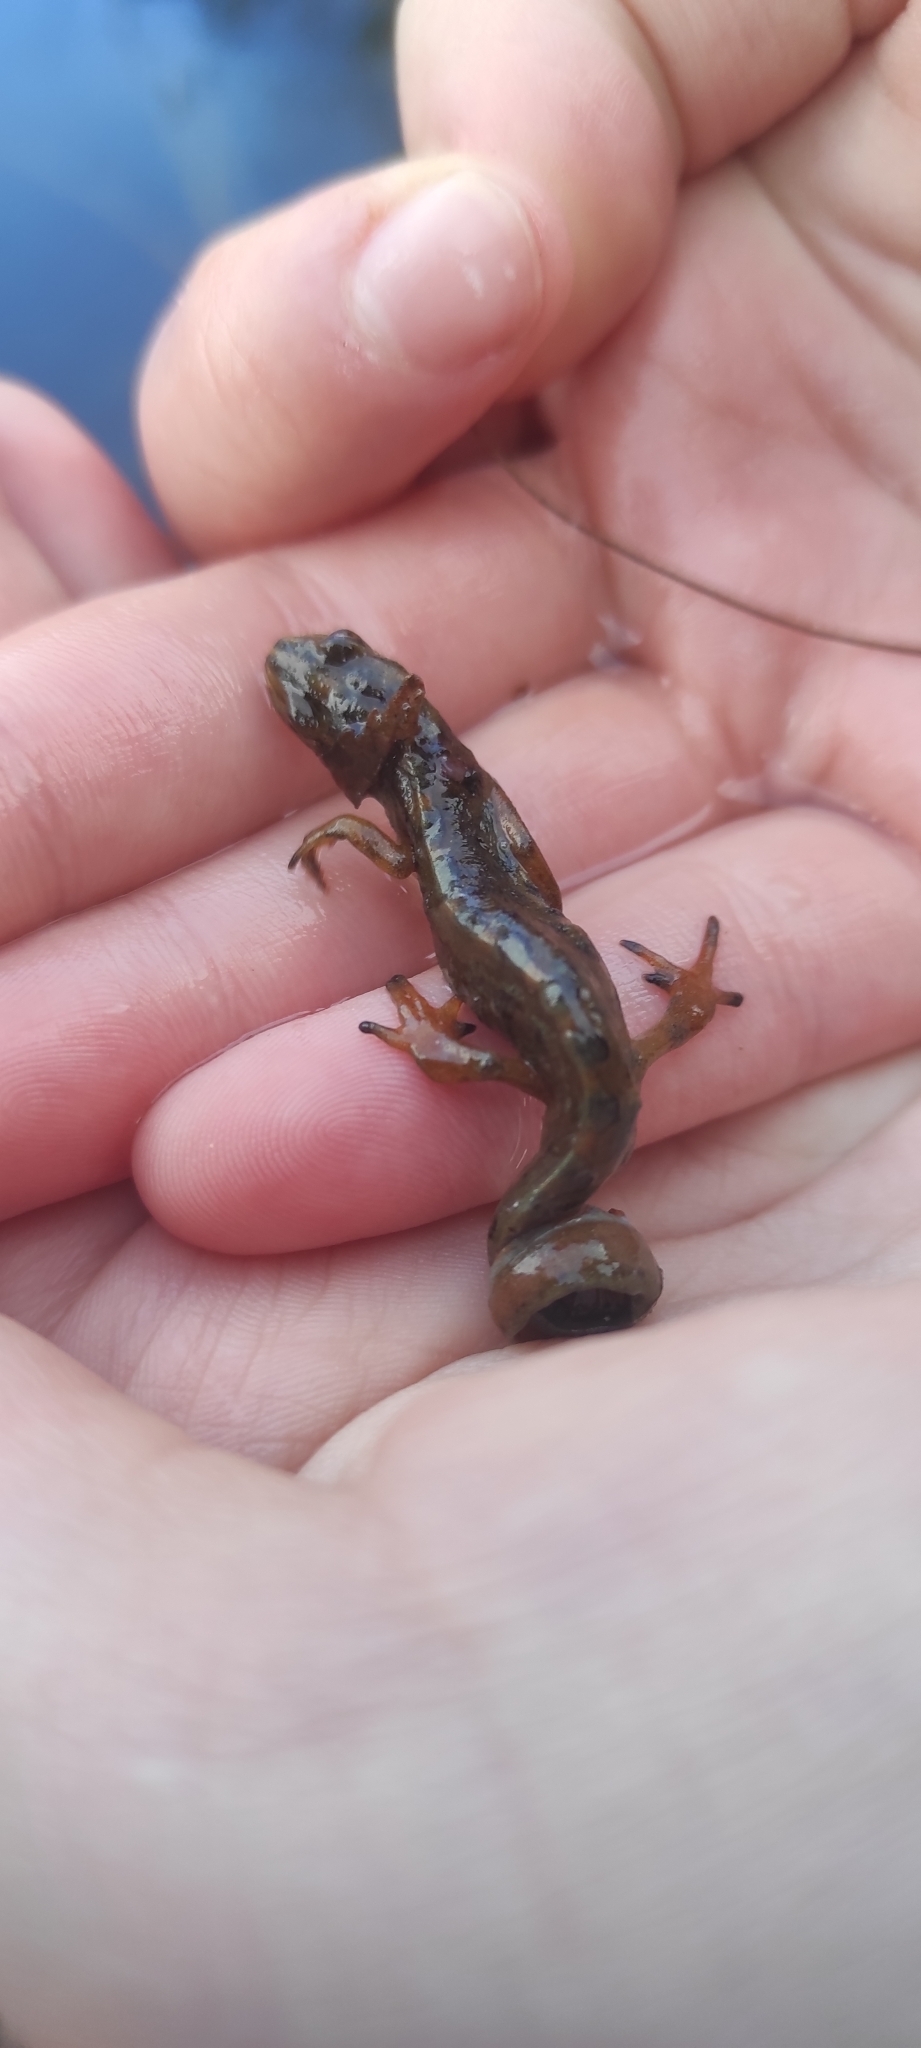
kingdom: Animalia
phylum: Chordata
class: Amphibia
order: Caudata
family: Salamandridae
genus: Lissotriton
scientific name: Lissotriton vulgaris
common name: Smooth newt
